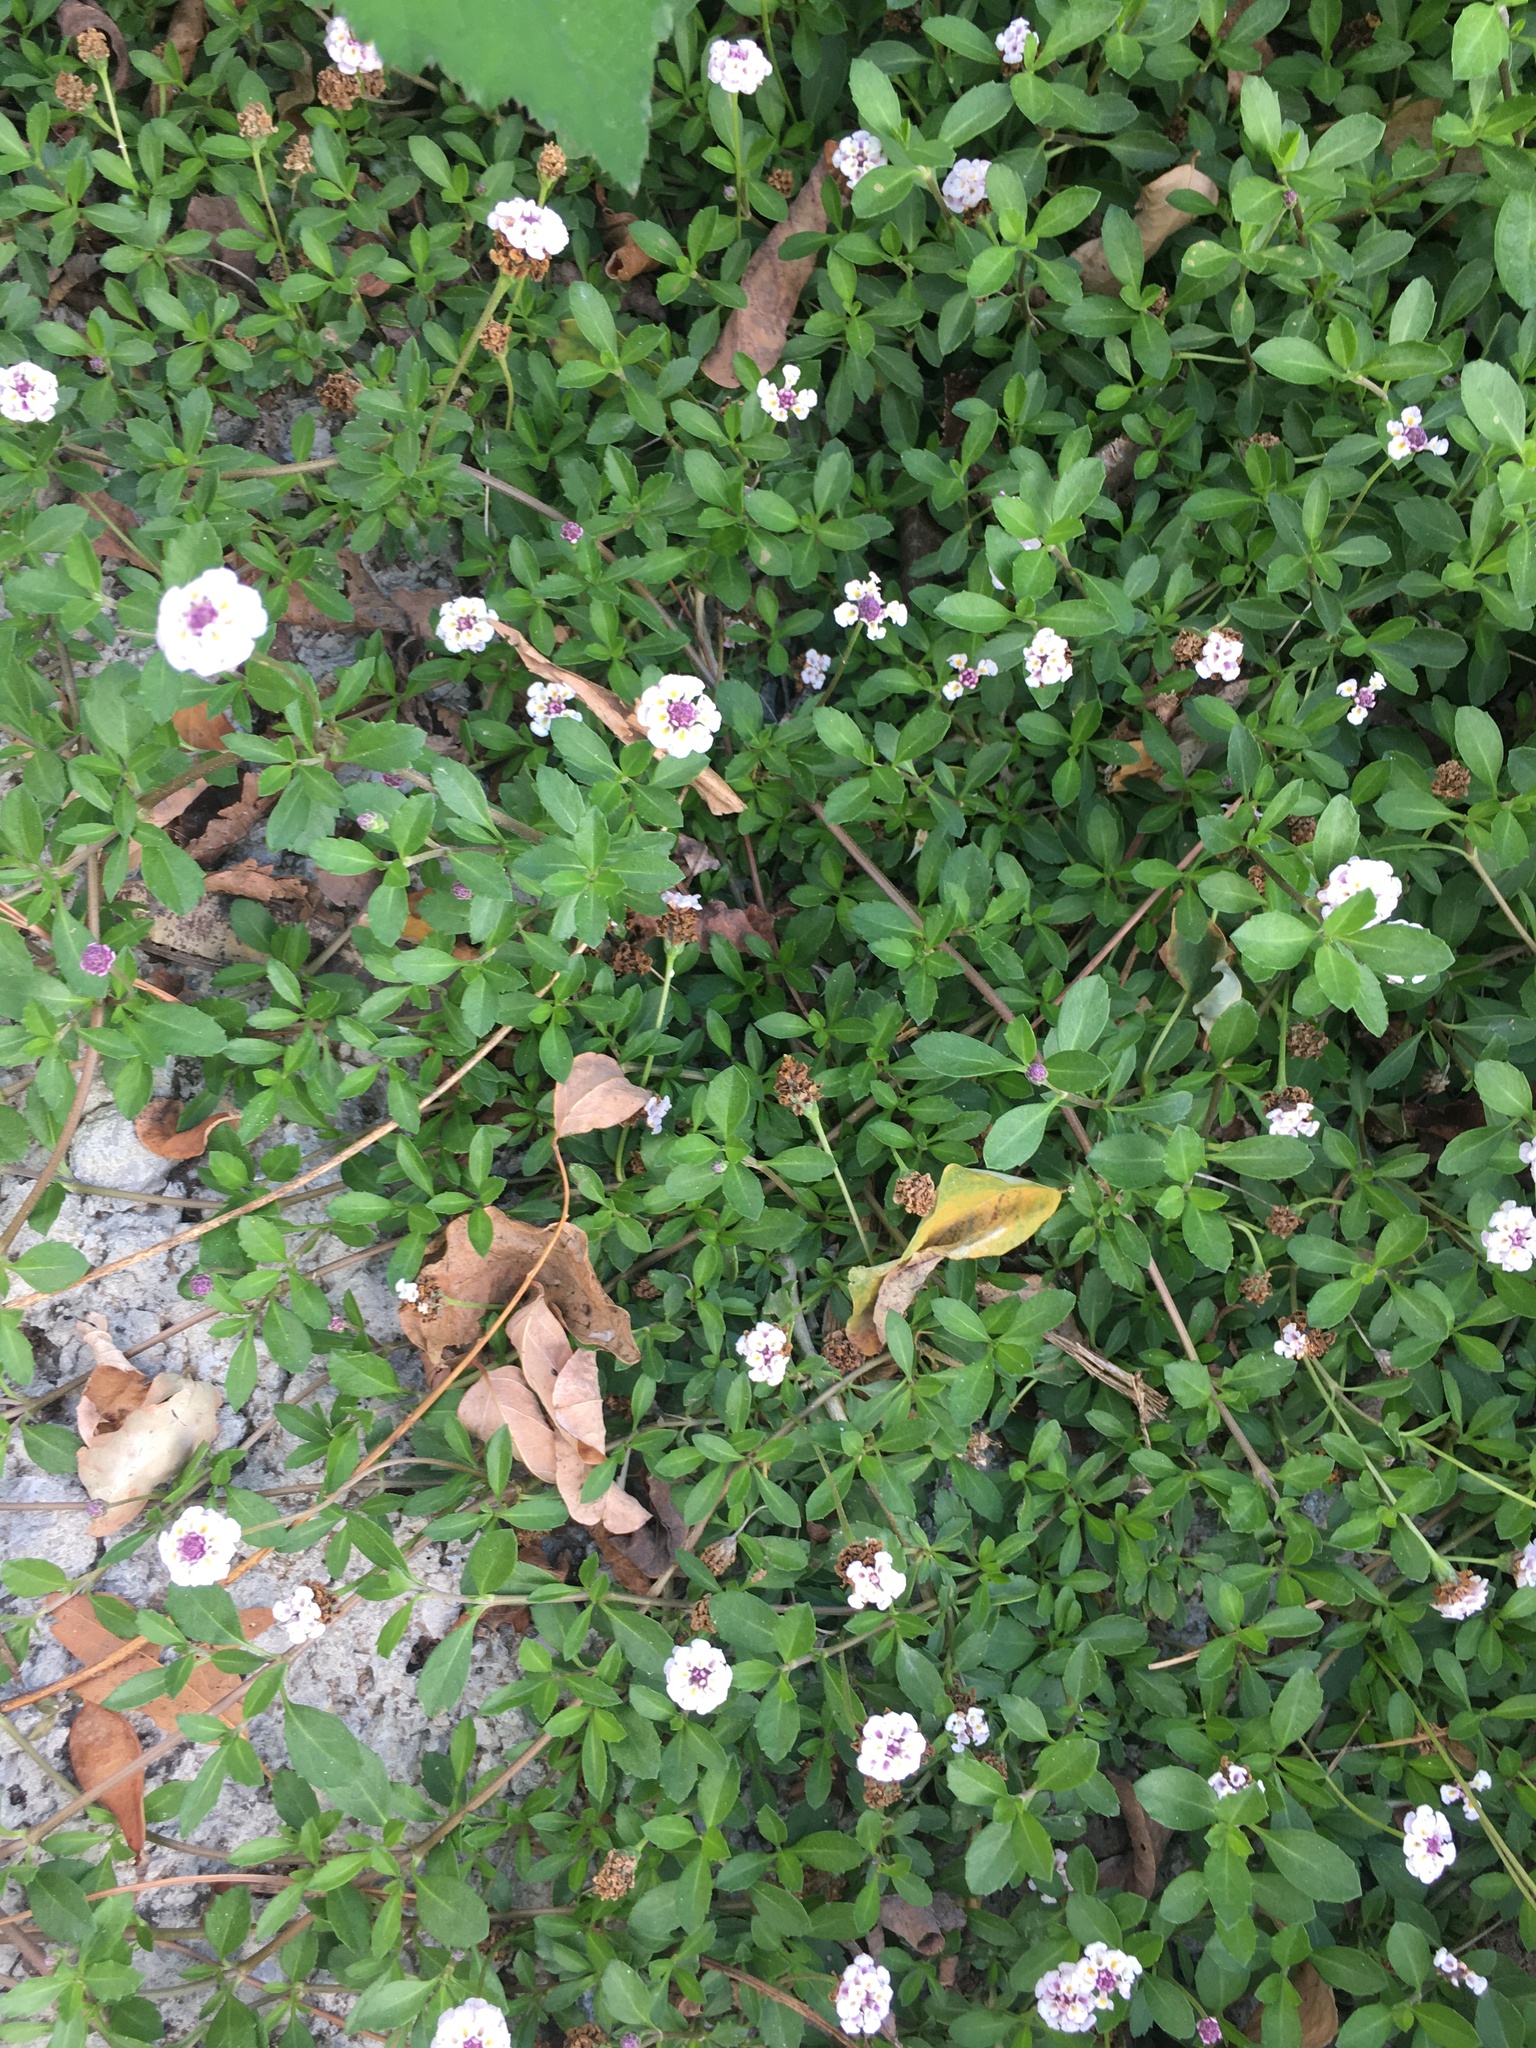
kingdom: Plantae
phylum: Tracheophyta
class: Magnoliopsida
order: Lamiales
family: Verbenaceae
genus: Phyla
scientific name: Phyla nodiflora
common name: Frogfruit
